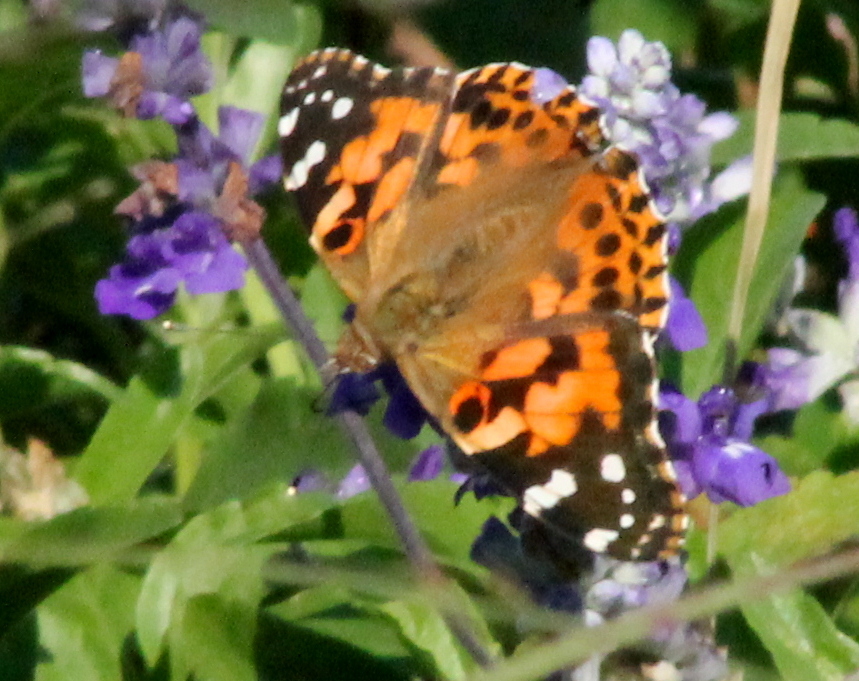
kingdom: Animalia
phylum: Arthropoda
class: Insecta
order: Lepidoptera
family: Nymphalidae
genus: Vanessa
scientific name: Vanessa cardui
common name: Painted lady
